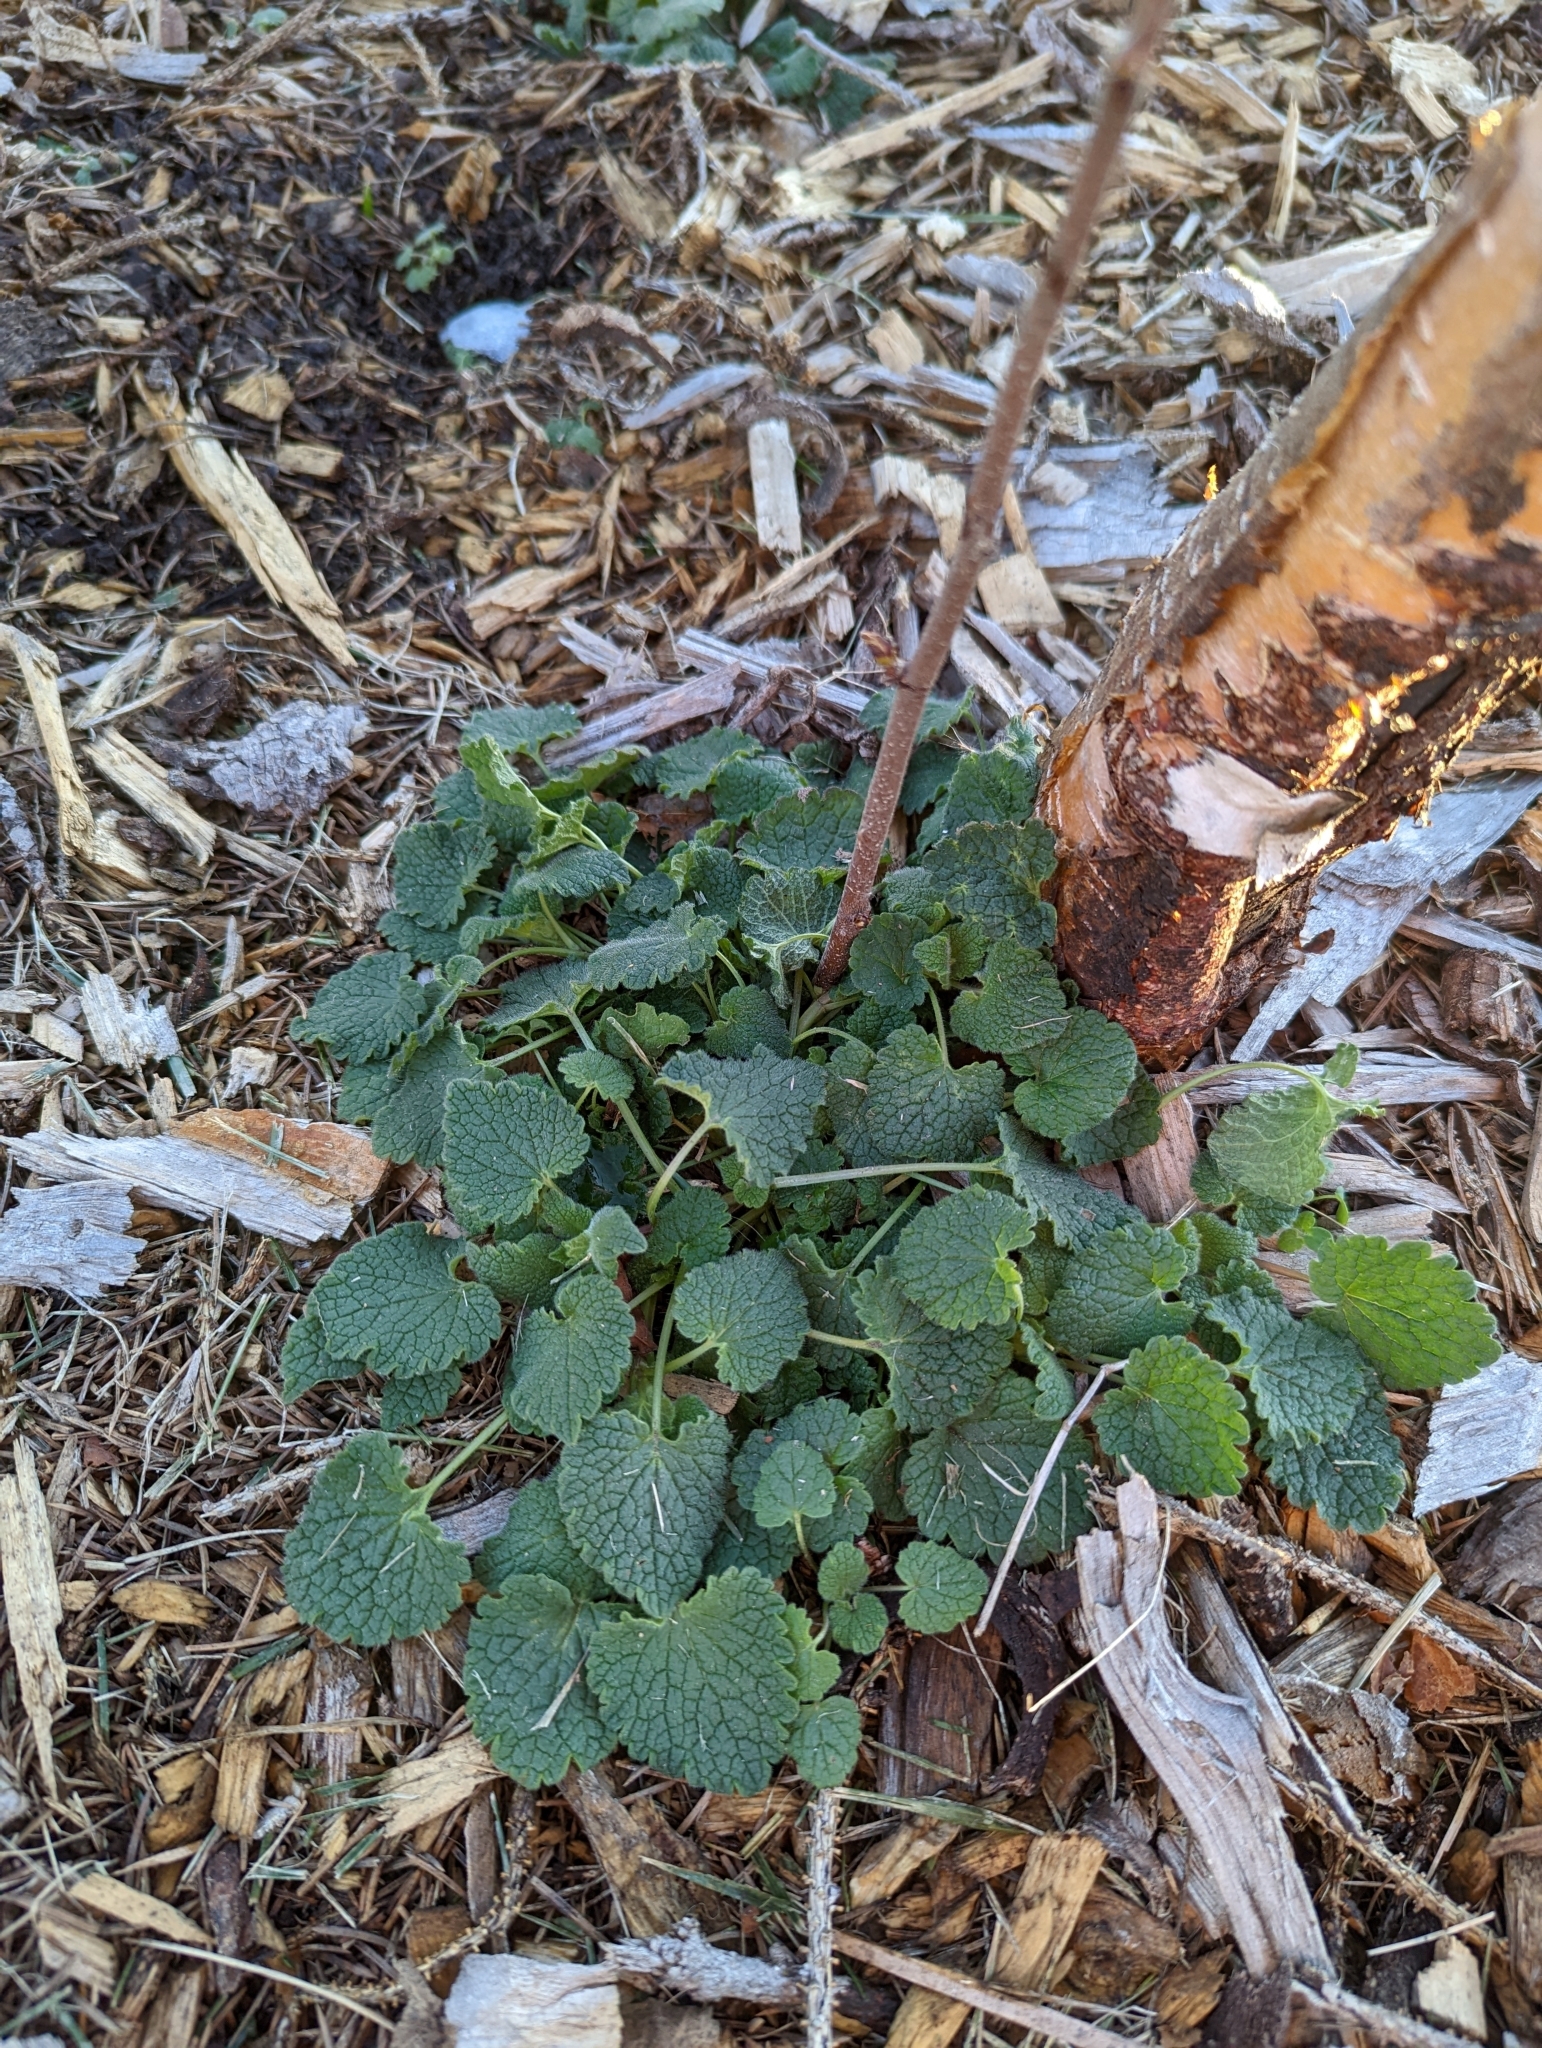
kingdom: Plantae
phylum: Tracheophyta
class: Magnoliopsida
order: Lamiales
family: Lamiaceae
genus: Lamium
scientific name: Lamium purpureum
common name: Red dead-nettle
